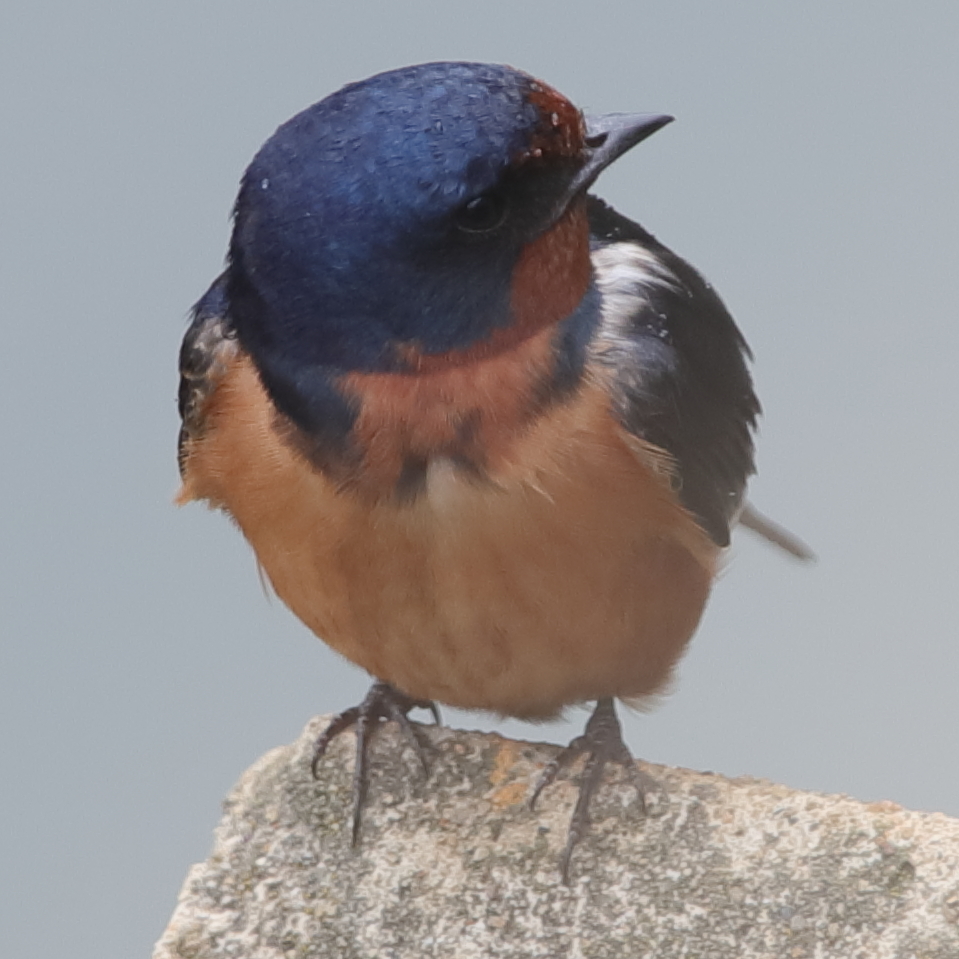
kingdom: Animalia
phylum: Chordata
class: Aves
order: Passeriformes
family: Hirundinidae
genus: Hirundo
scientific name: Hirundo rustica
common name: Barn swallow
